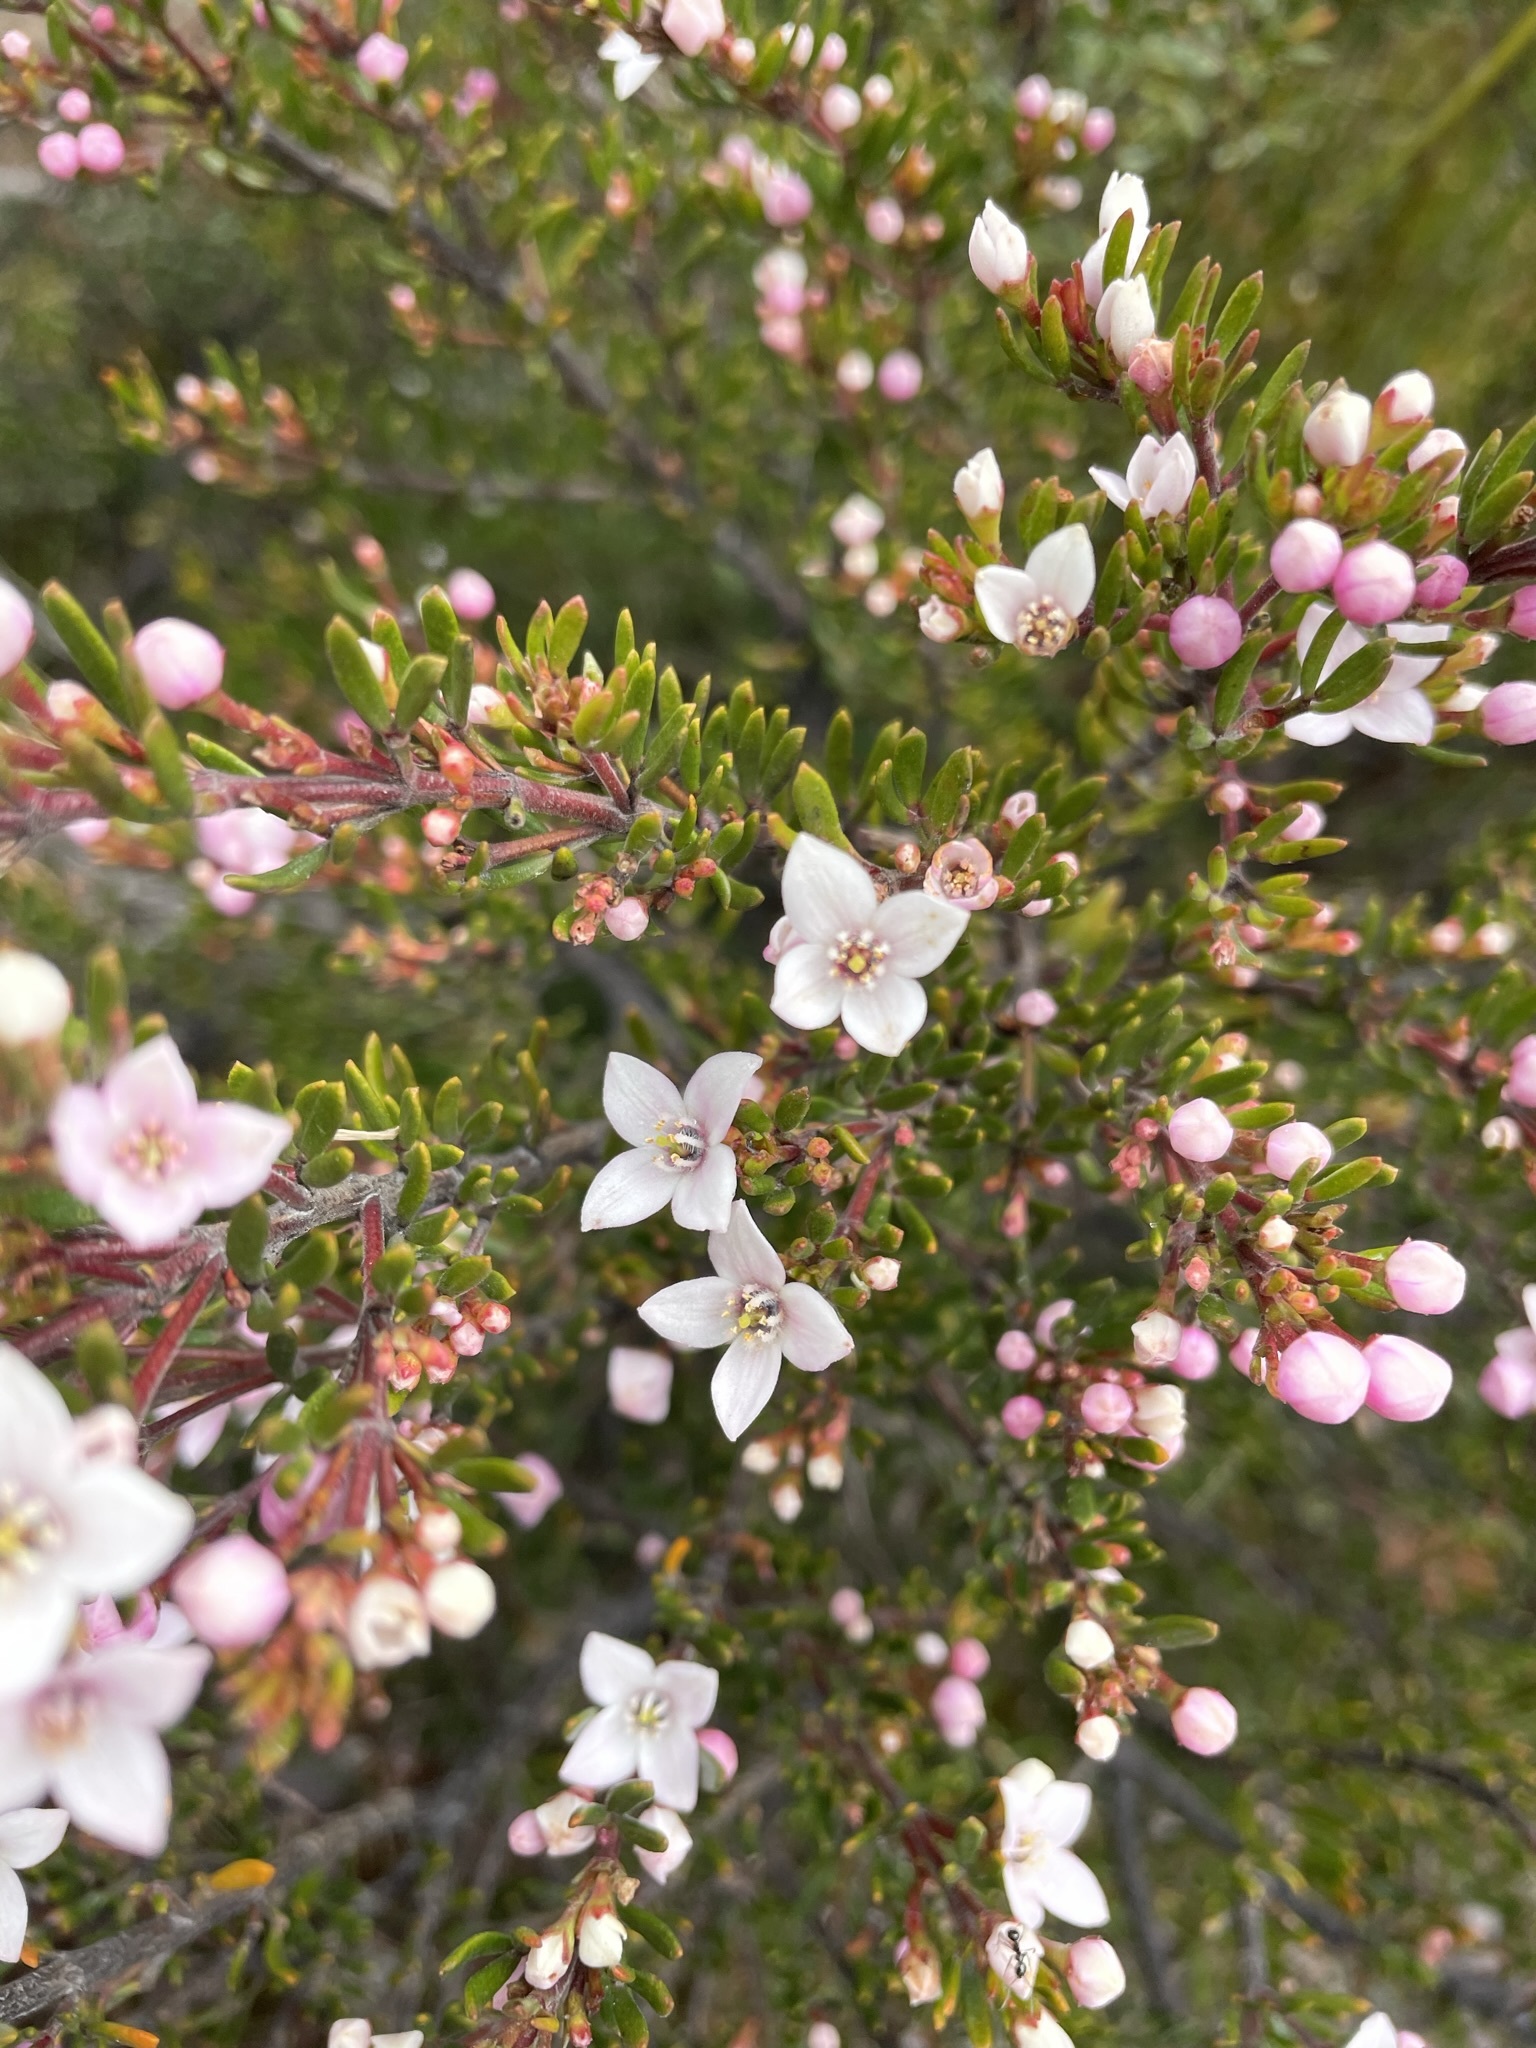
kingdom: Plantae
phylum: Tracheophyta
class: Magnoliopsida
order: Sapindales
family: Rutaceae
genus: Boronia
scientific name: Boronia citriodora
